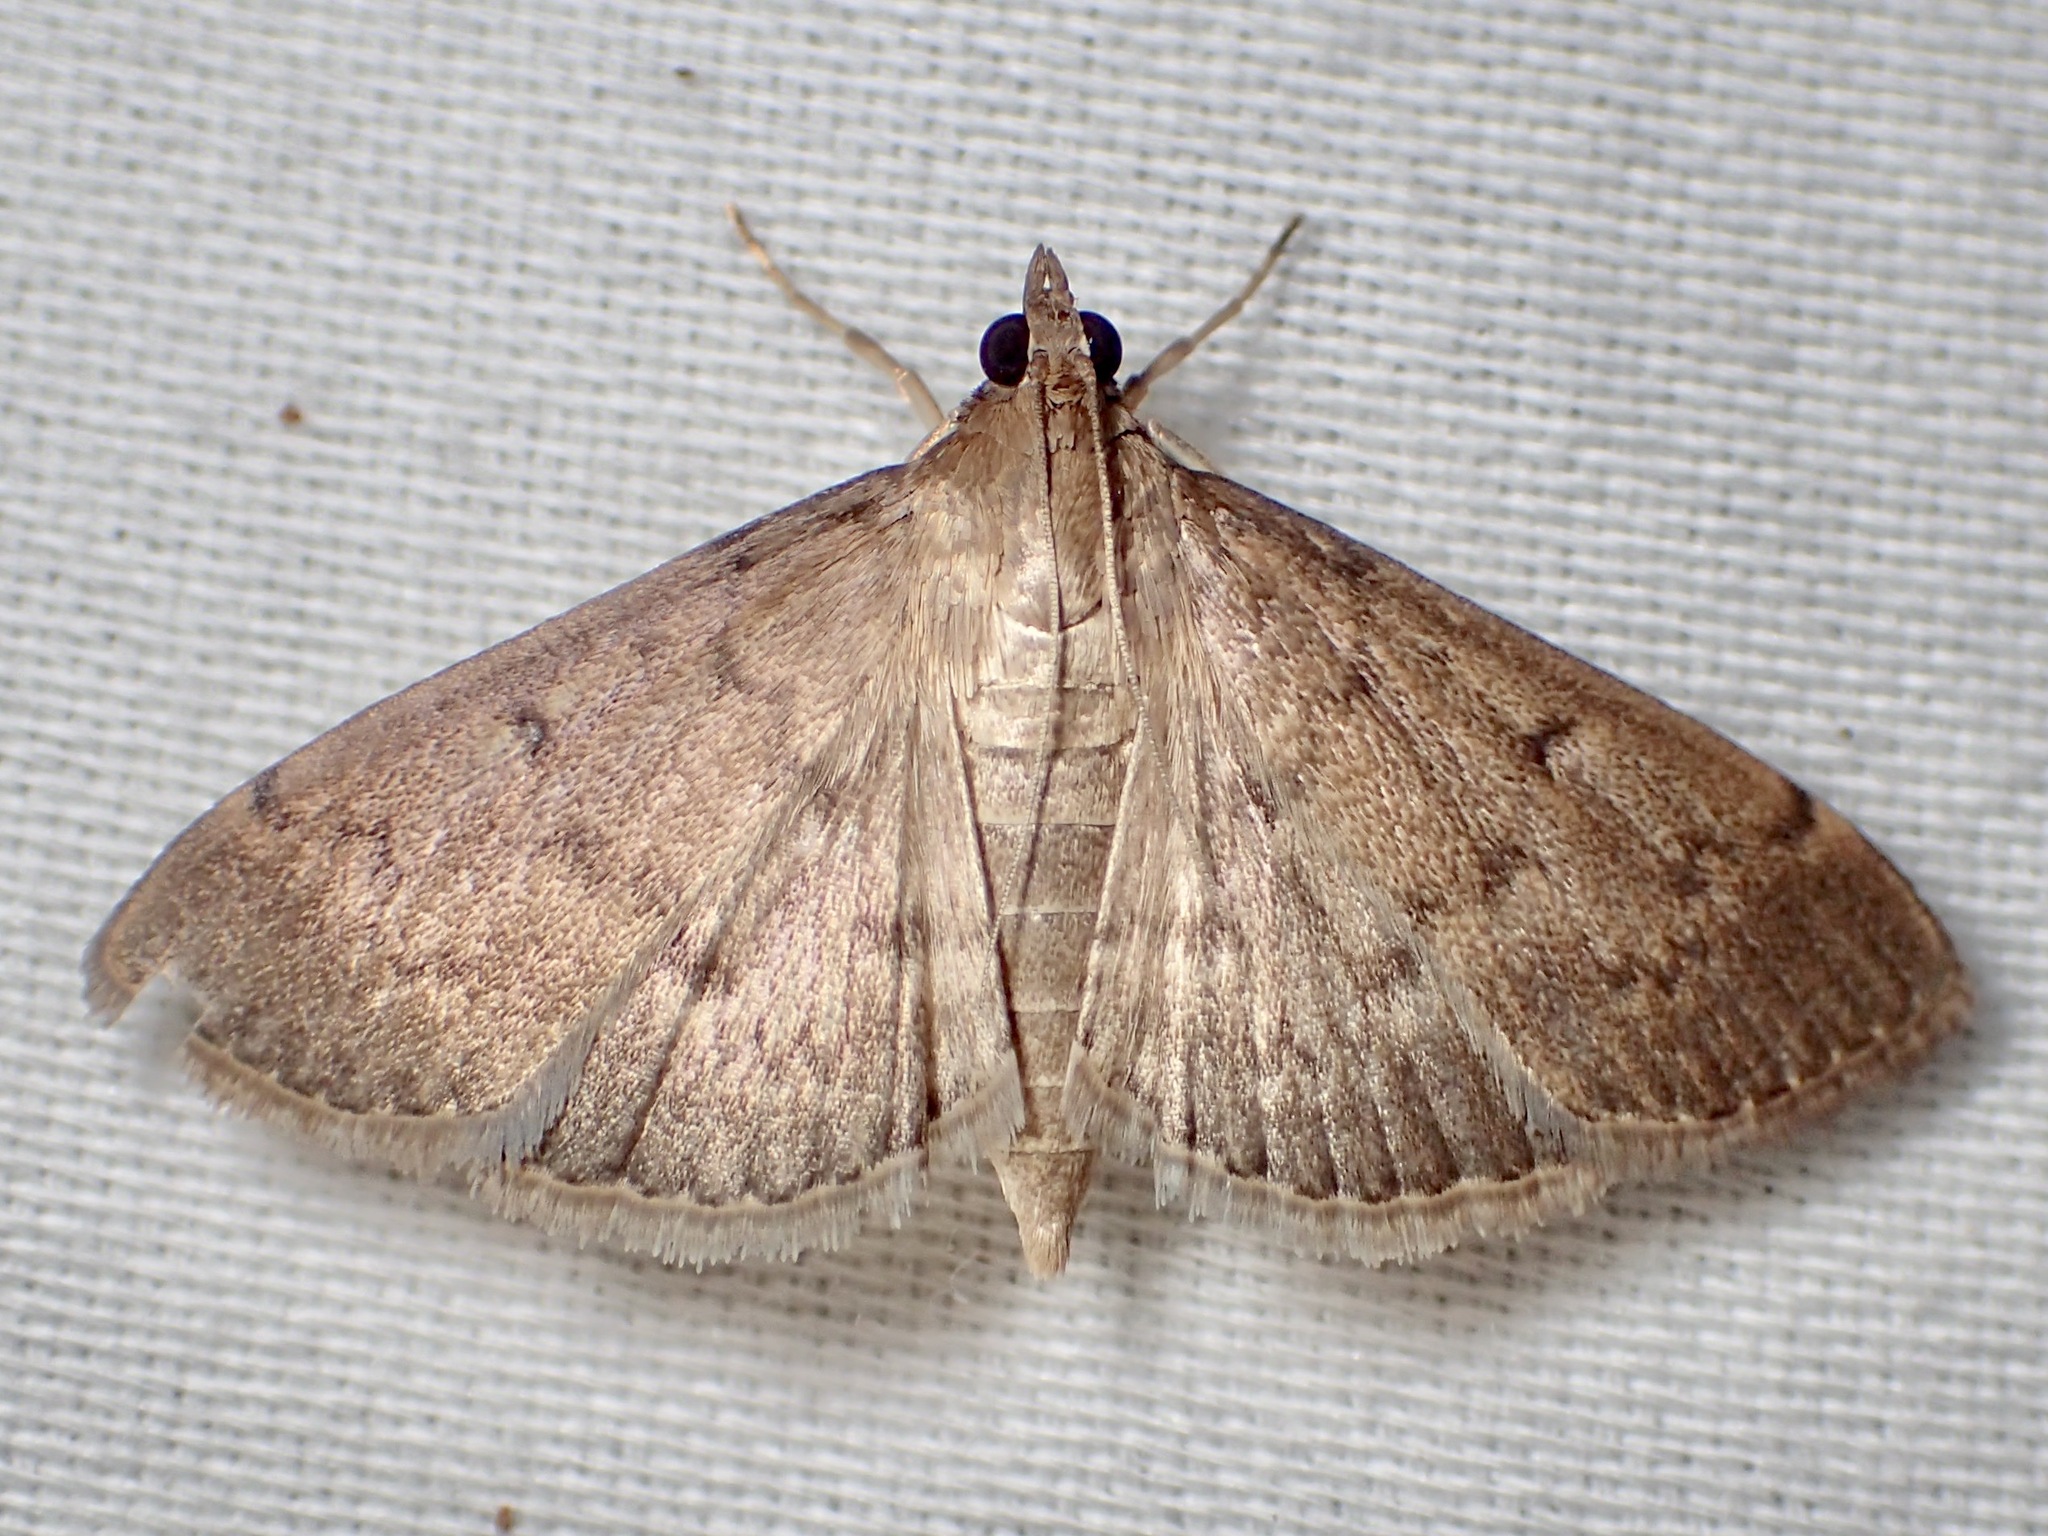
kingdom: Animalia
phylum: Arthropoda
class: Insecta
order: Lepidoptera
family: Crambidae
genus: Herpetogramma
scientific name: Herpetogramma licarsisalis
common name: Grass webworm
